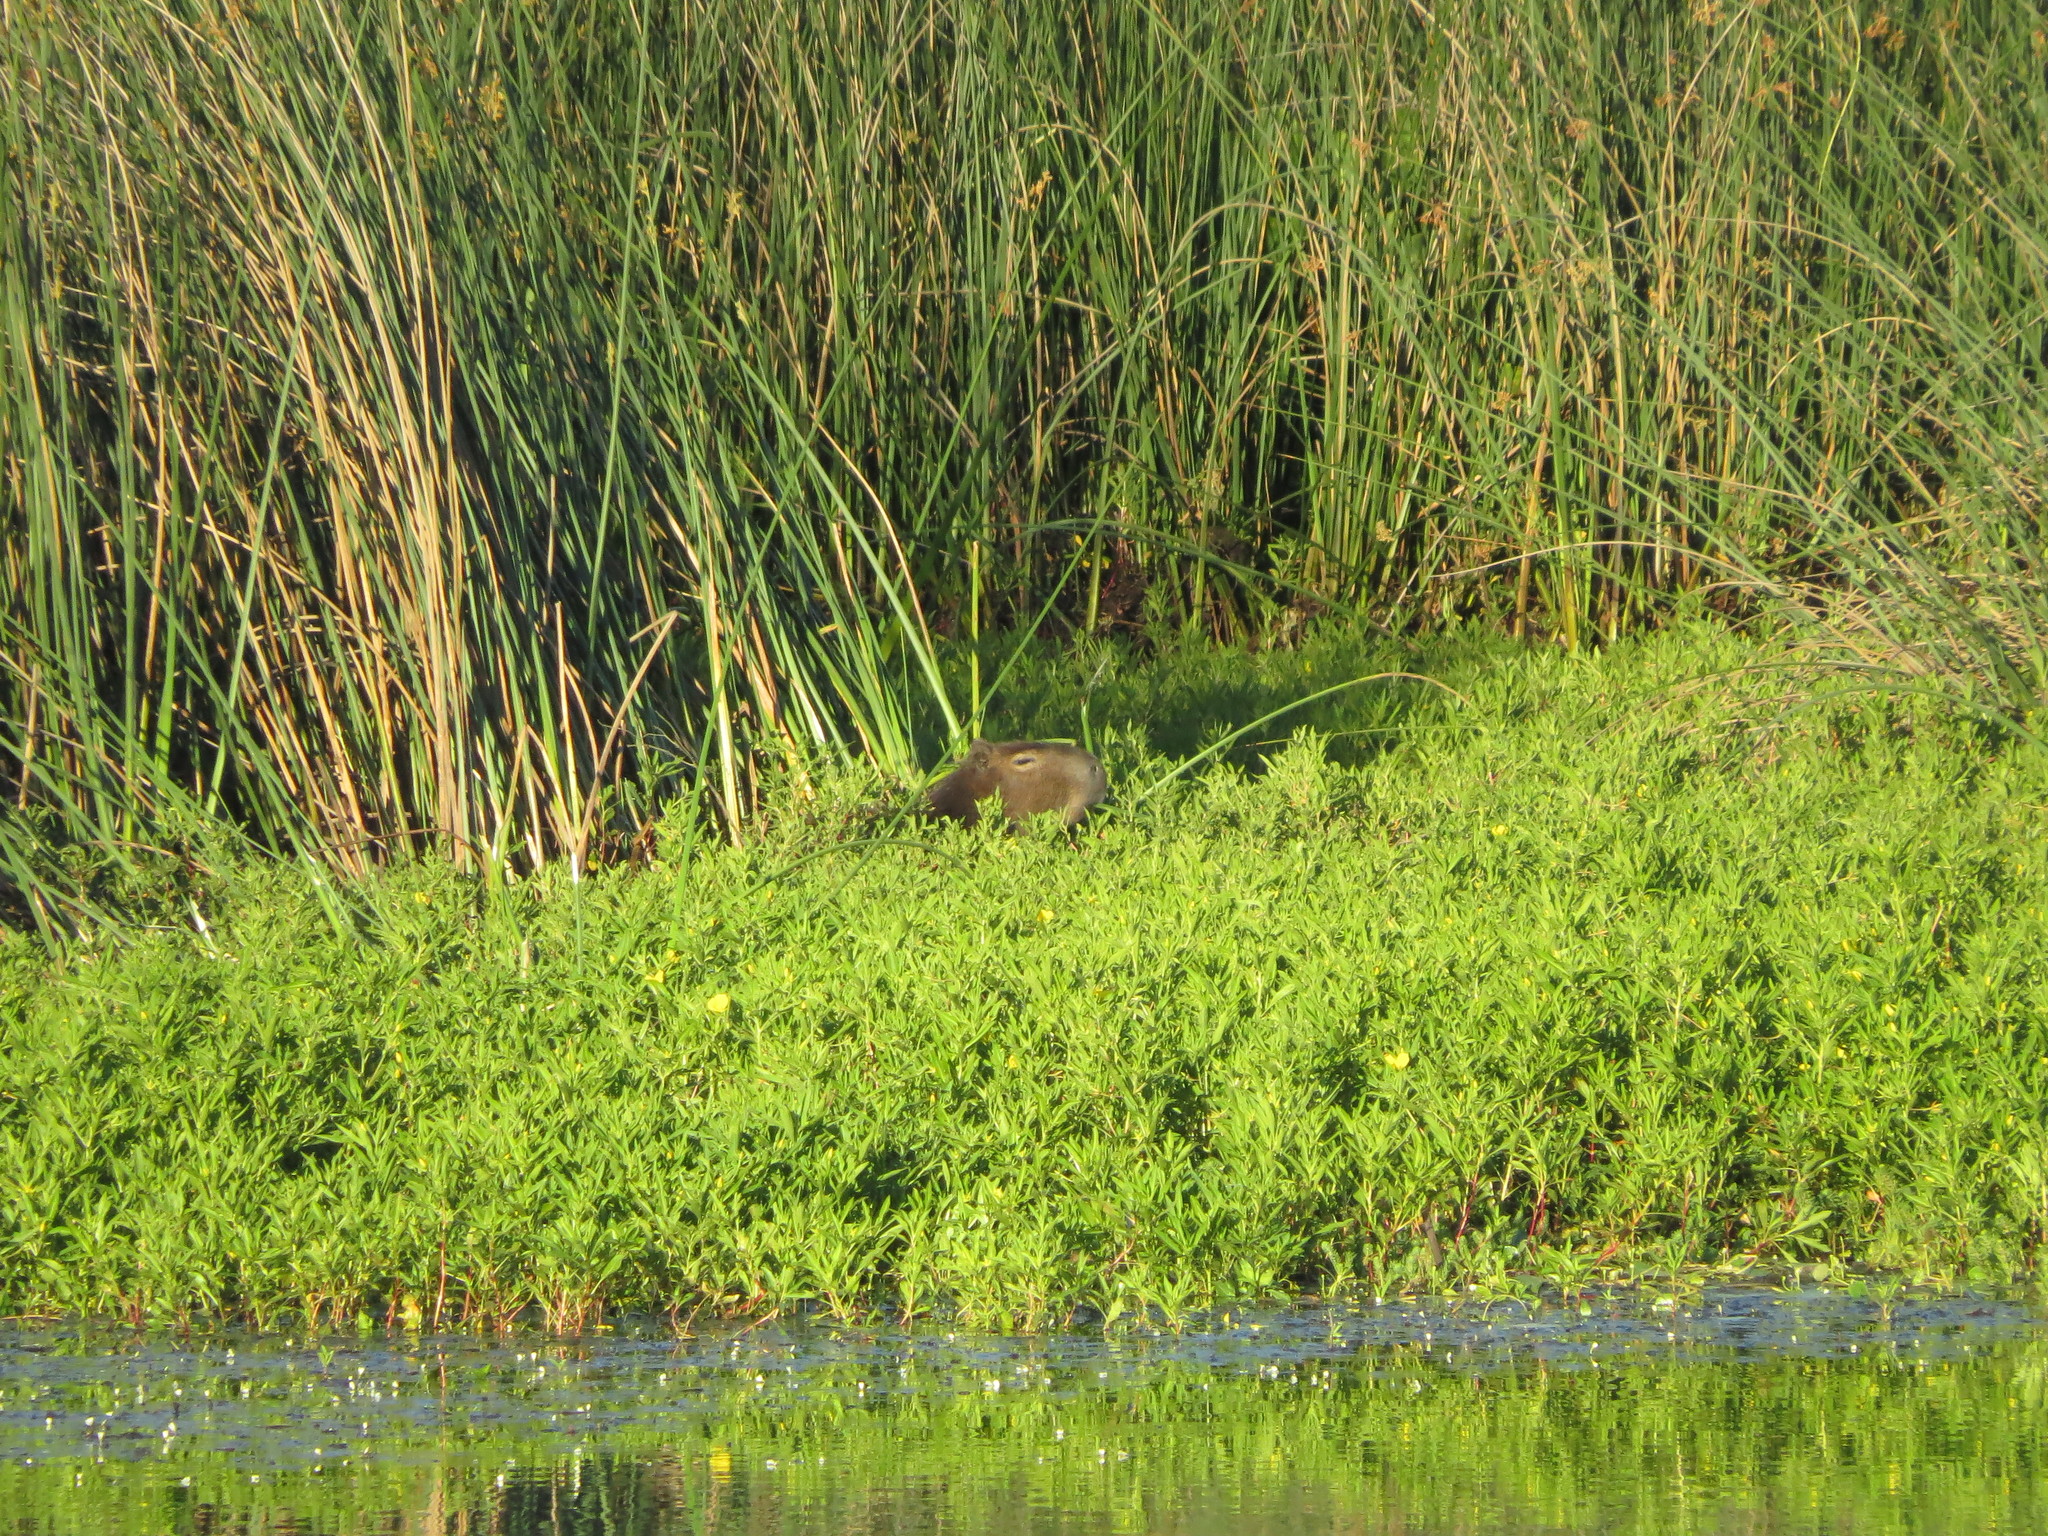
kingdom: Animalia
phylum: Chordata
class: Mammalia
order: Rodentia
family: Caviidae
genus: Hydrochoerus
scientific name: Hydrochoerus hydrochaeris
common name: Capybara
